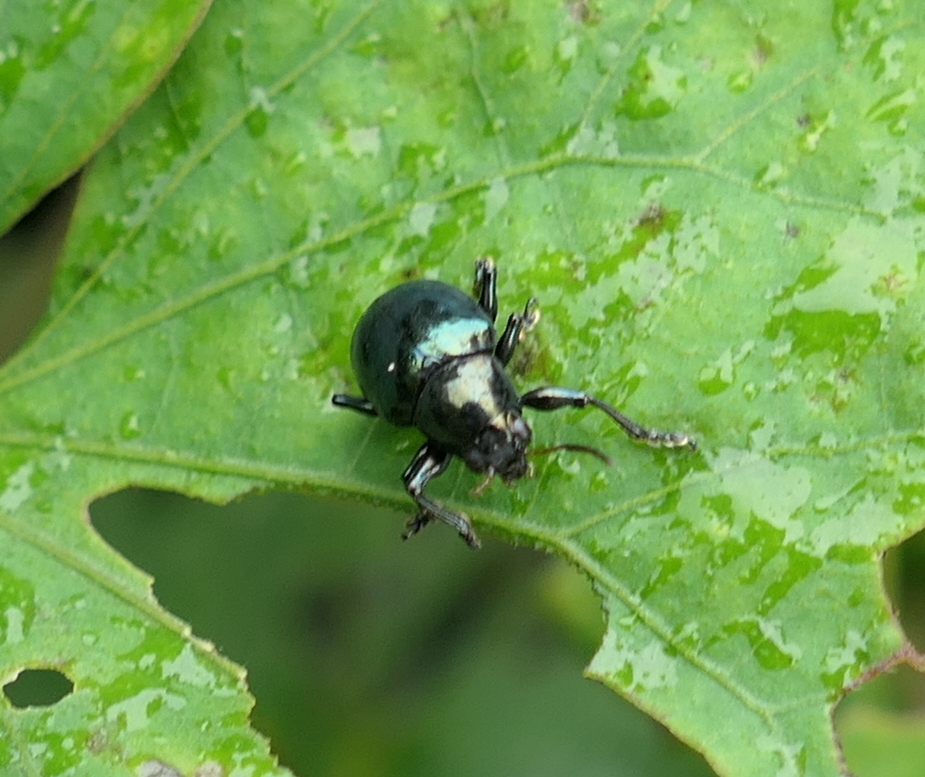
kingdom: Animalia
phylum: Arthropoda
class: Insecta
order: Coleoptera
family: Chrysomelidae
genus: Typophorus
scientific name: Typophorus nigritus
